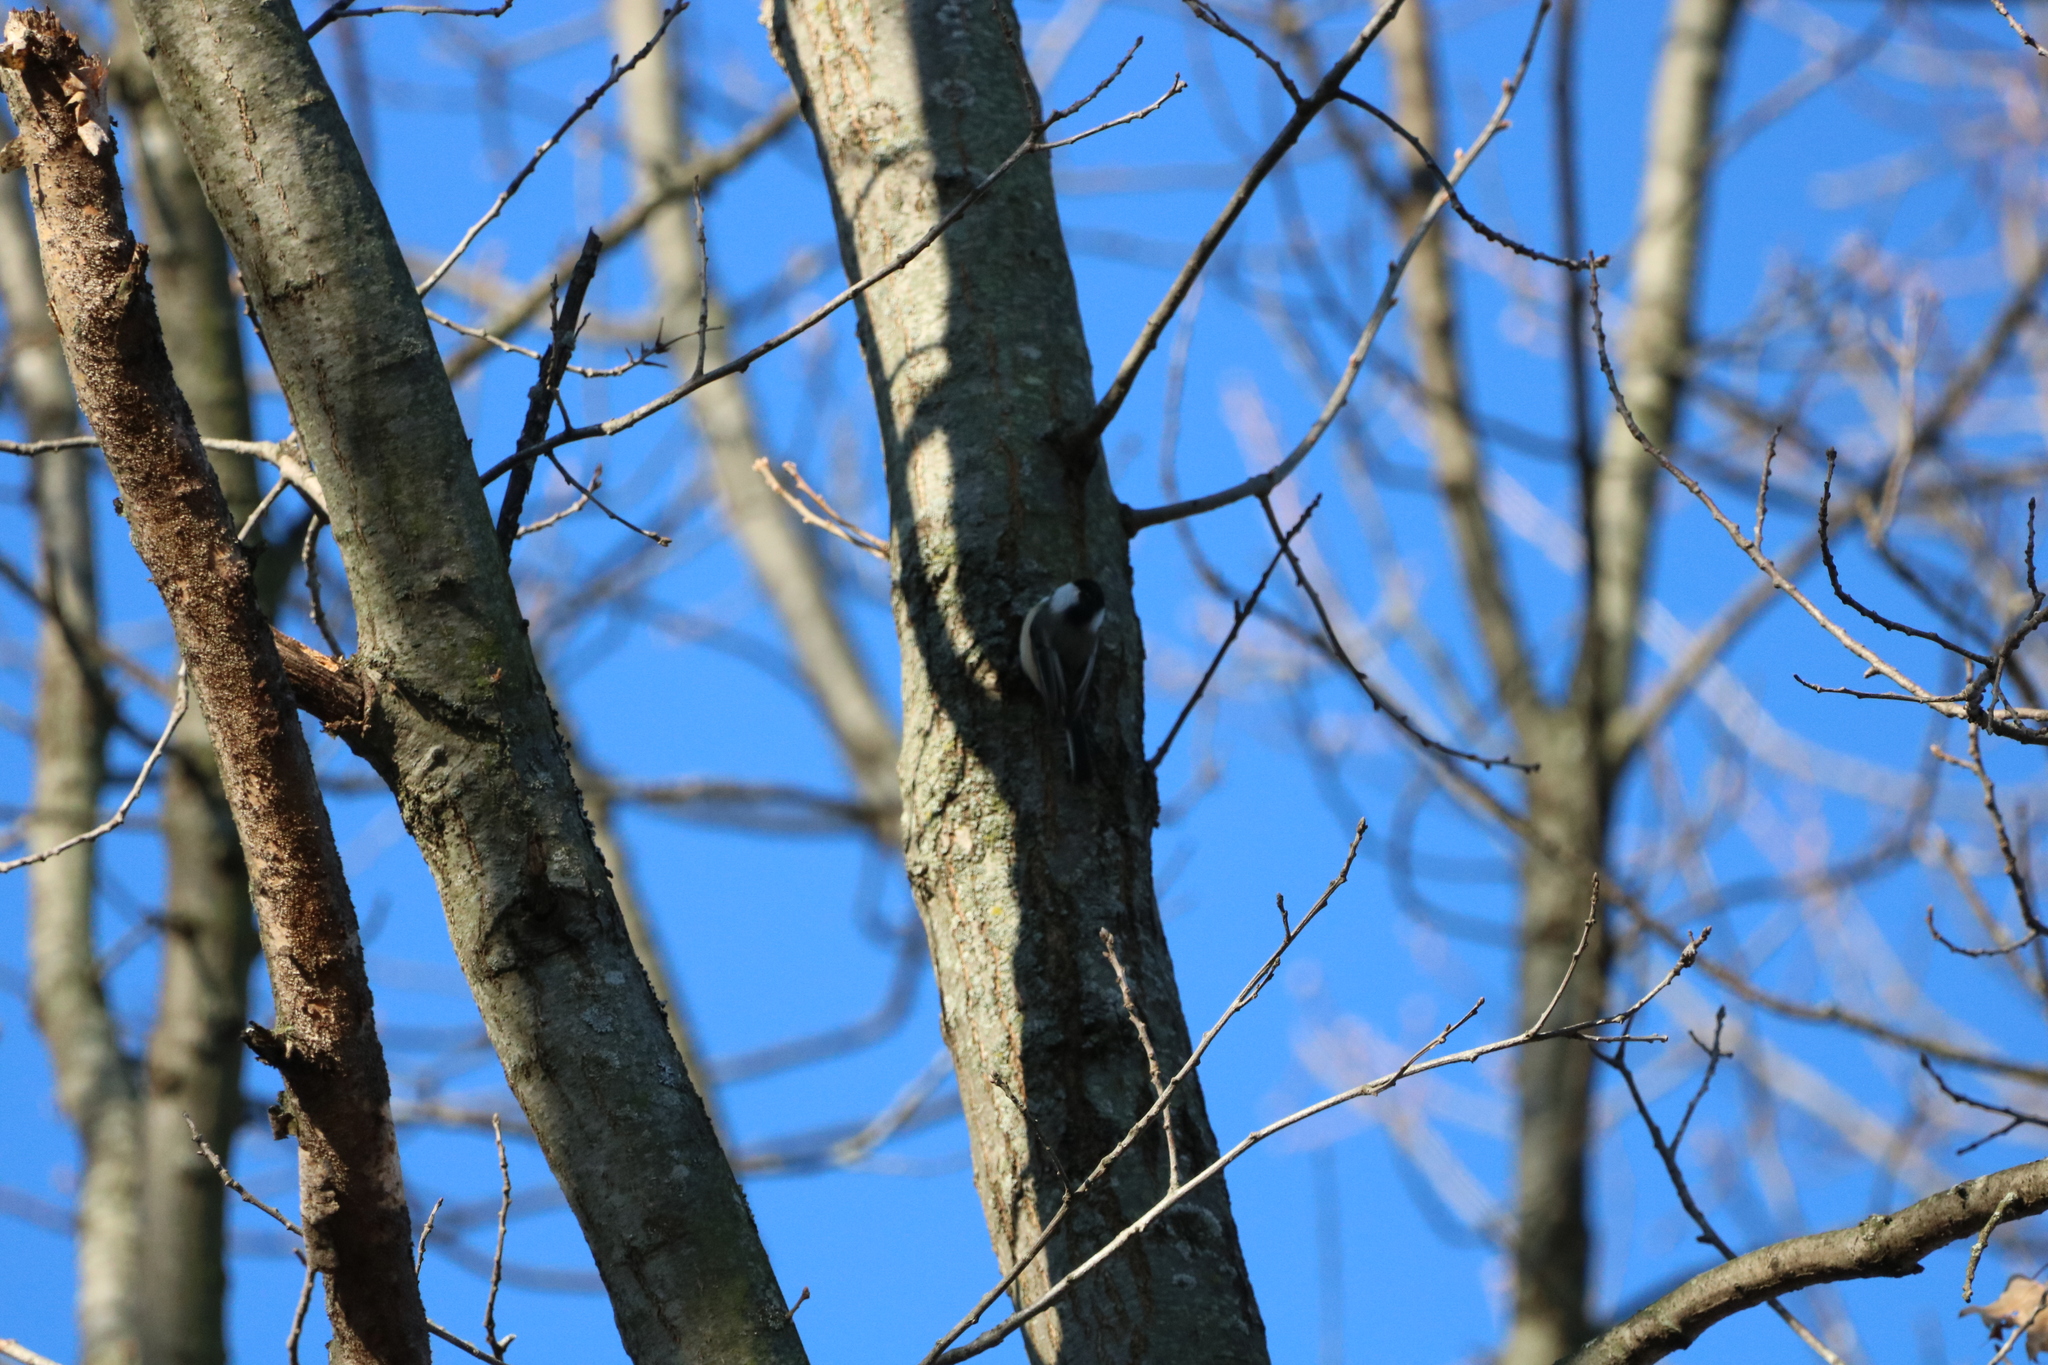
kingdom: Animalia
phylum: Chordata
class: Aves
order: Passeriformes
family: Paridae
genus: Poecile
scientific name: Poecile atricapillus
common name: Black-capped chickadee
